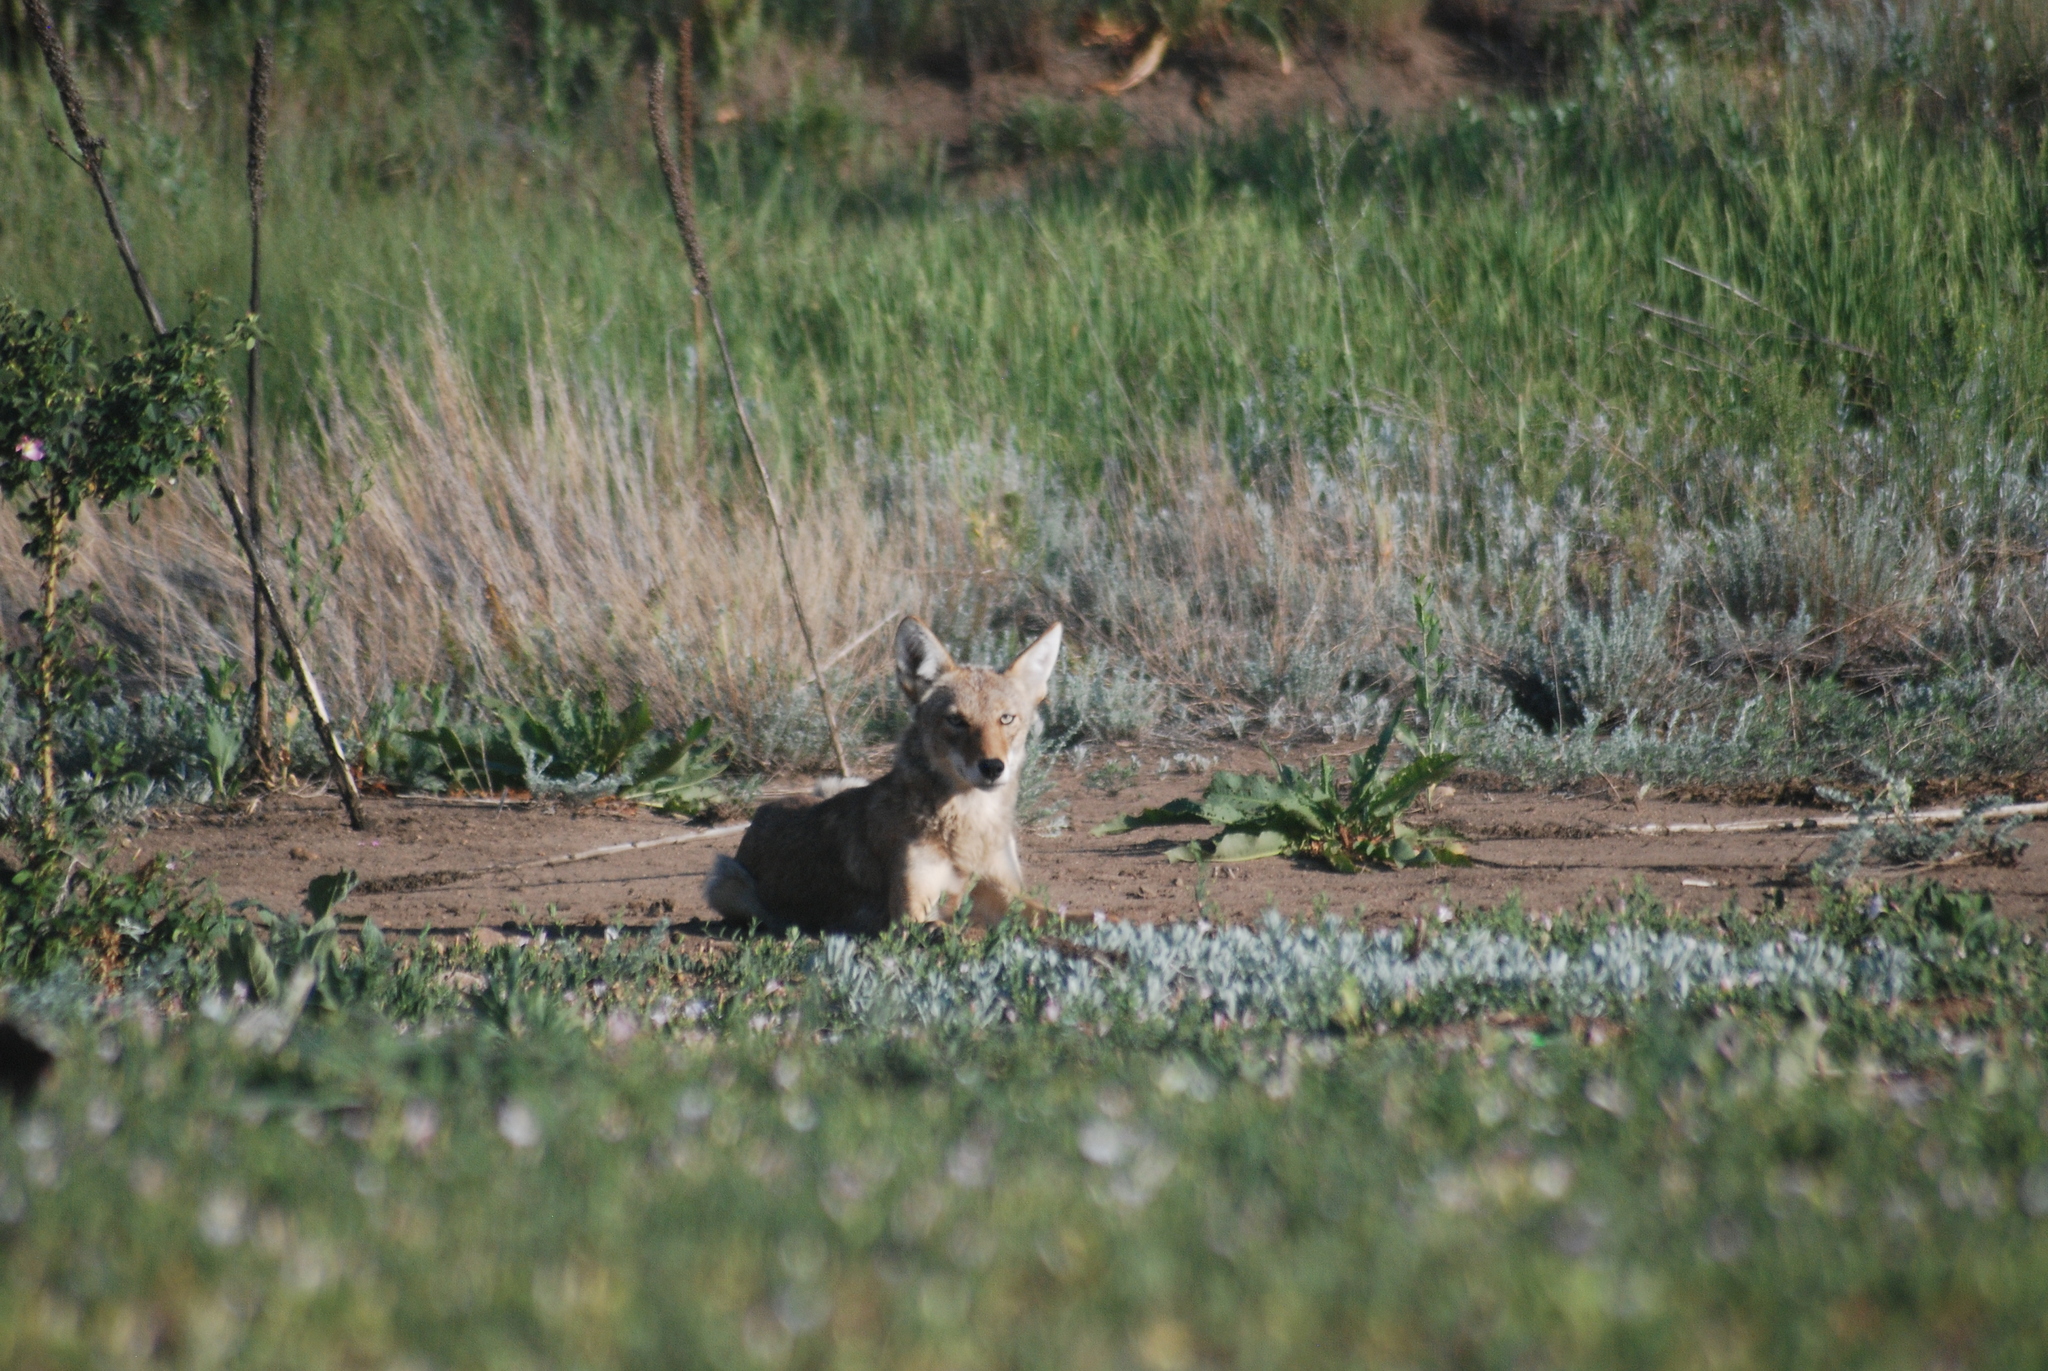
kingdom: Animalia
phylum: Chordata
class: Mammalia
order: Carnivora
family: Canidae
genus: Canis
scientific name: Canis latrans
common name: Coyote
